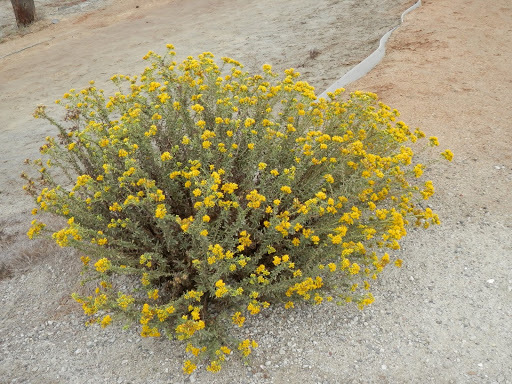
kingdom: Plantae
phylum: Tracheophyta
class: Magnoliopsida
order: Asterales
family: Asteraceae
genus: Isocoma
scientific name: Isocoma menziesii
